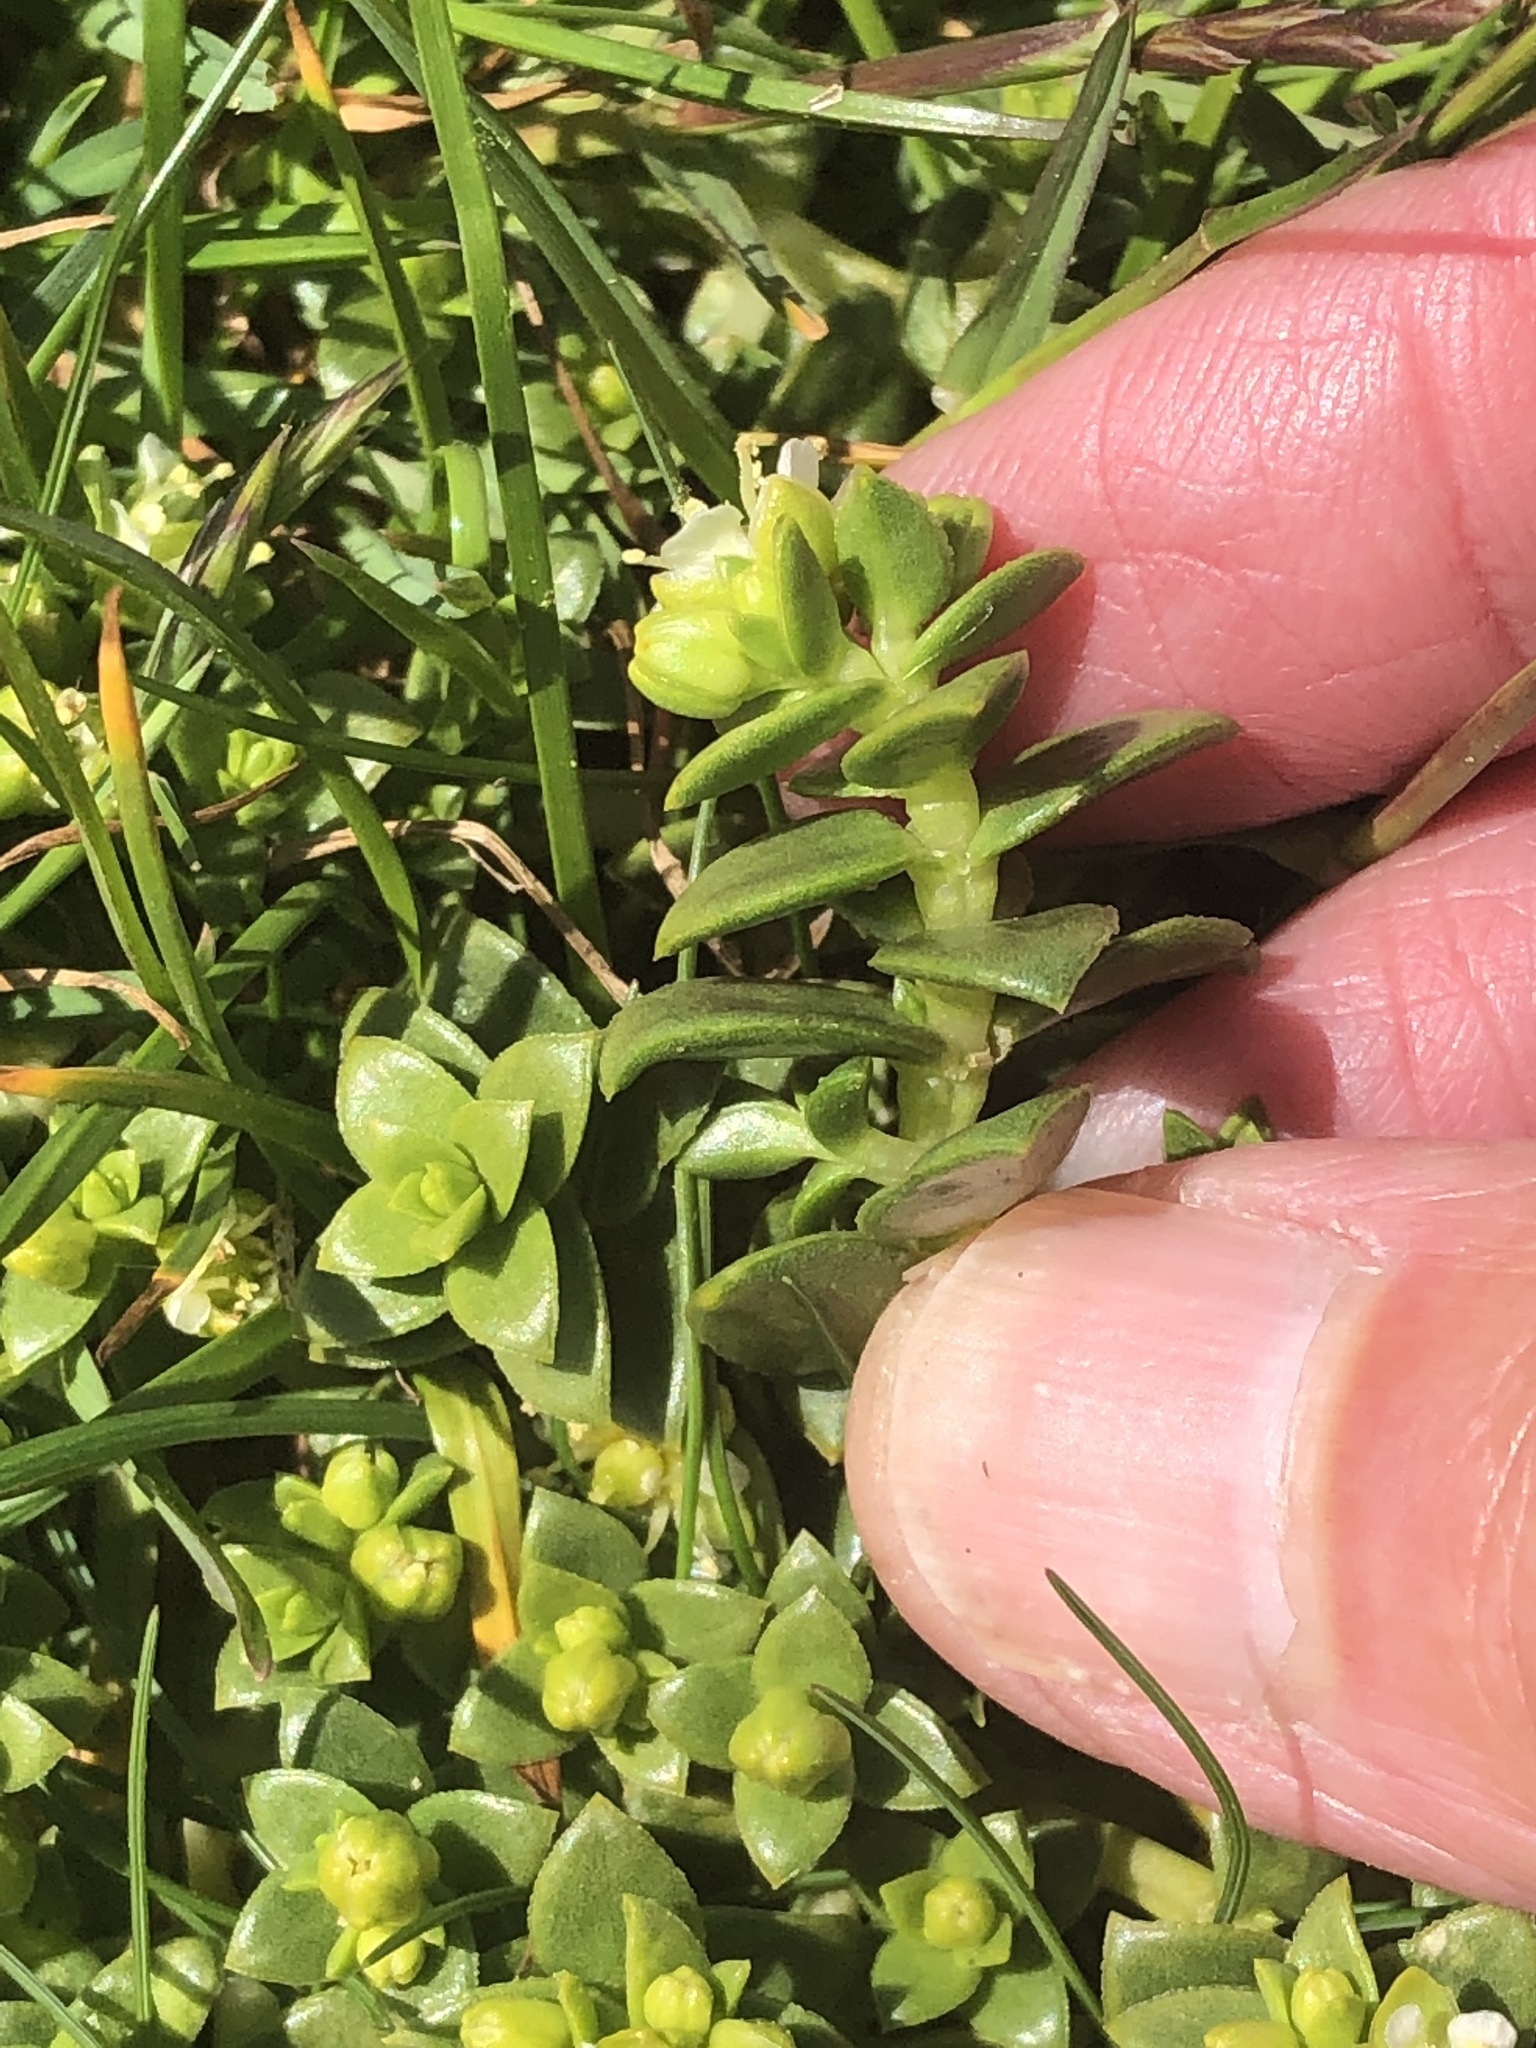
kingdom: Plantae
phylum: Tracheophyta
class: Magnoliopsida
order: Caryophyllales
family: Caryophyllaceae
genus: Honckenya
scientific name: Honckenya peploides
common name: Sea sandwort
